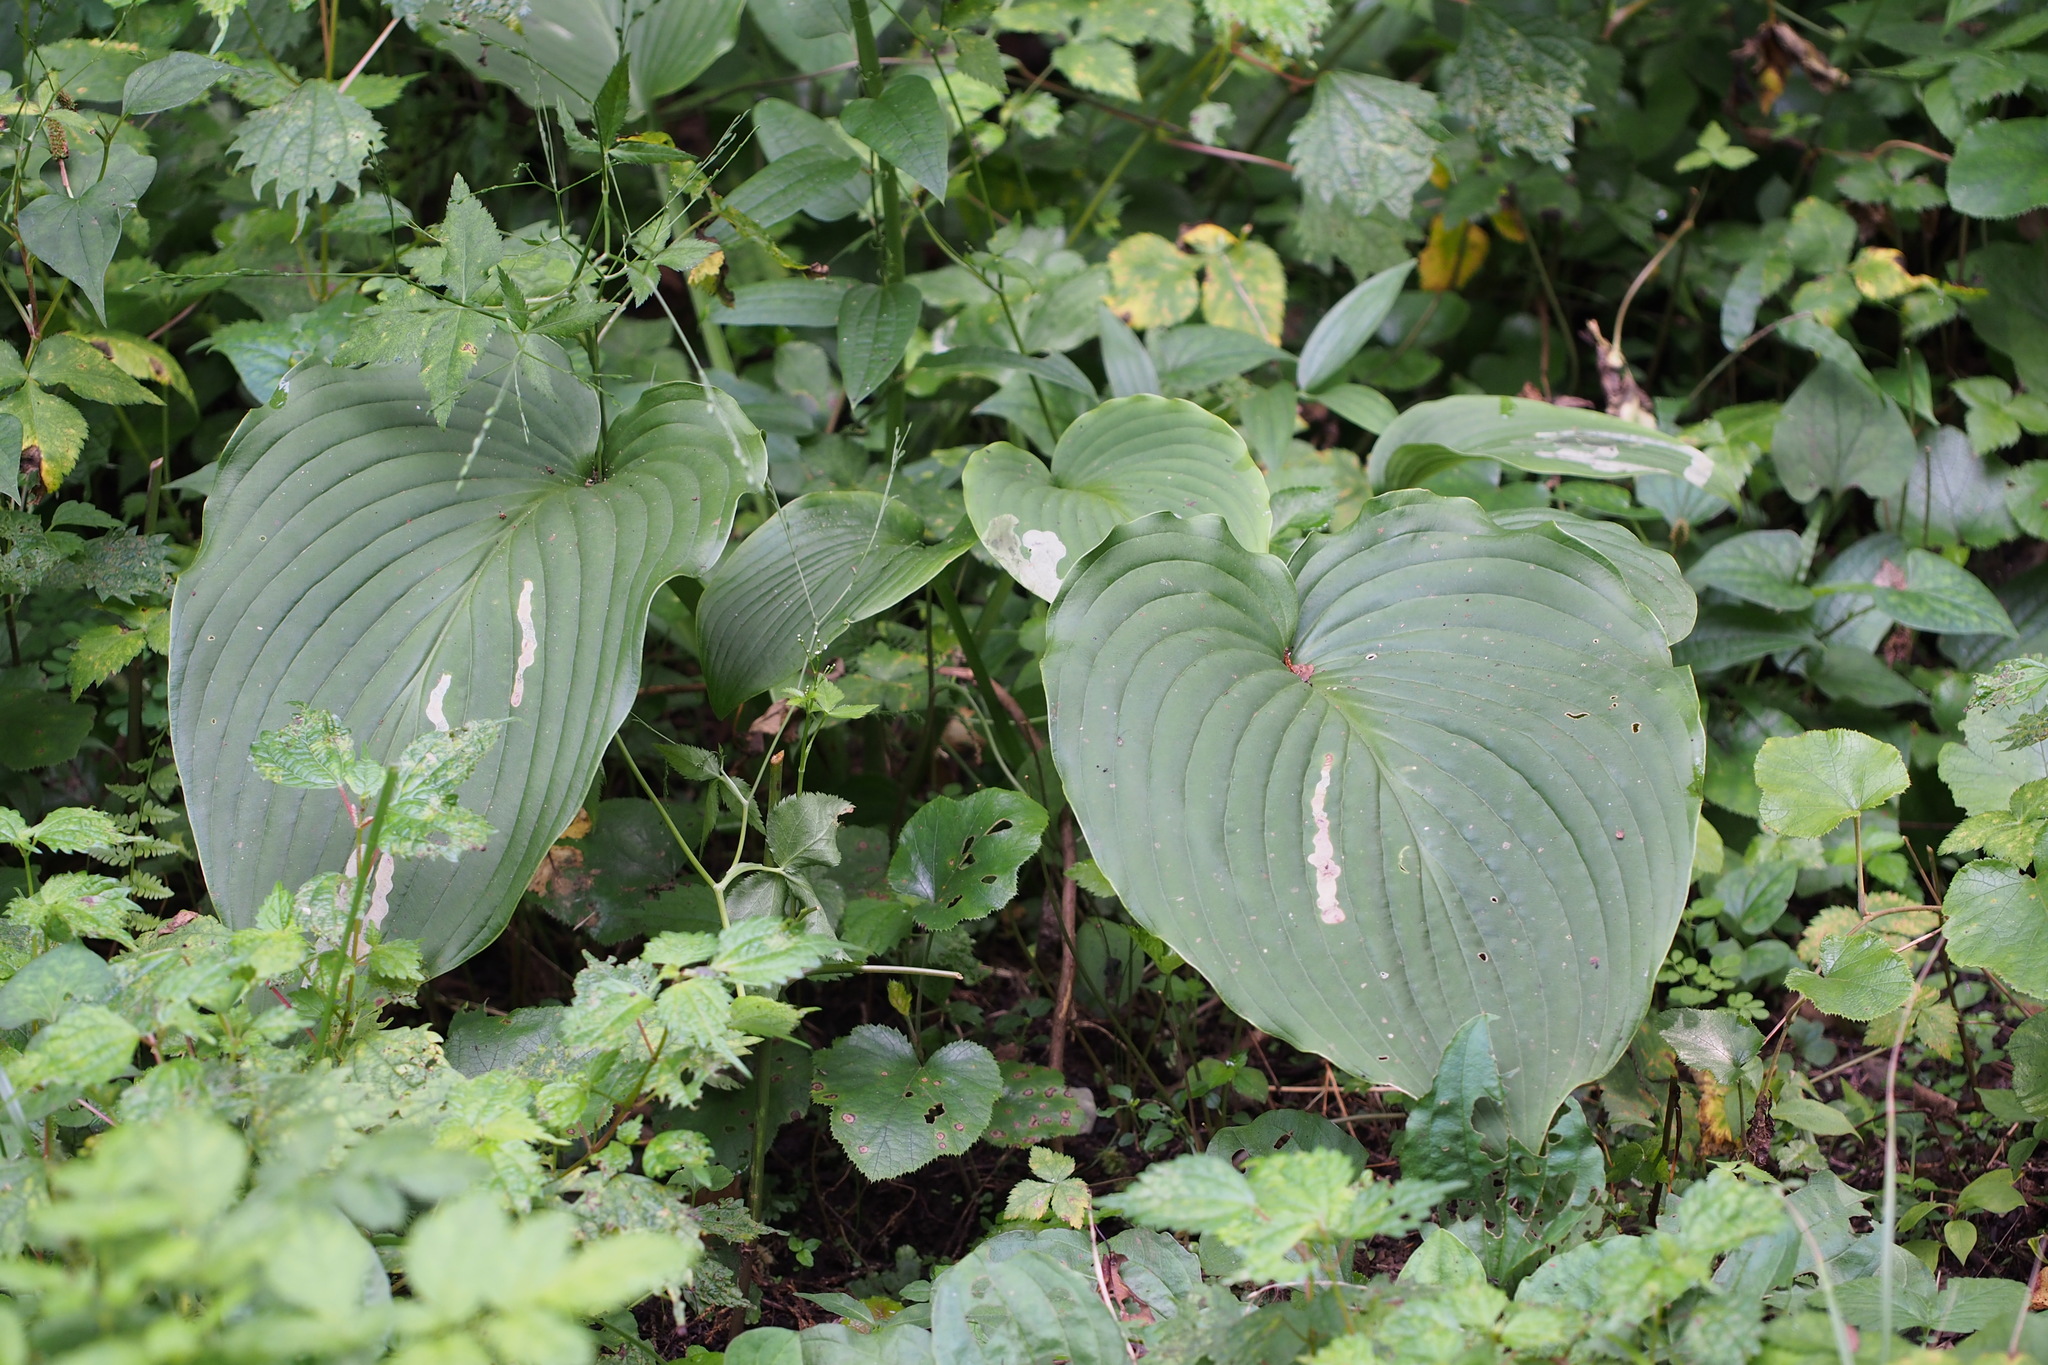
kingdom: Plantae
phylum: Tracheophyta
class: Liliopsida
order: Asparagales
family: Asparagaceae
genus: Hosta
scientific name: Hosta sieboldiana
